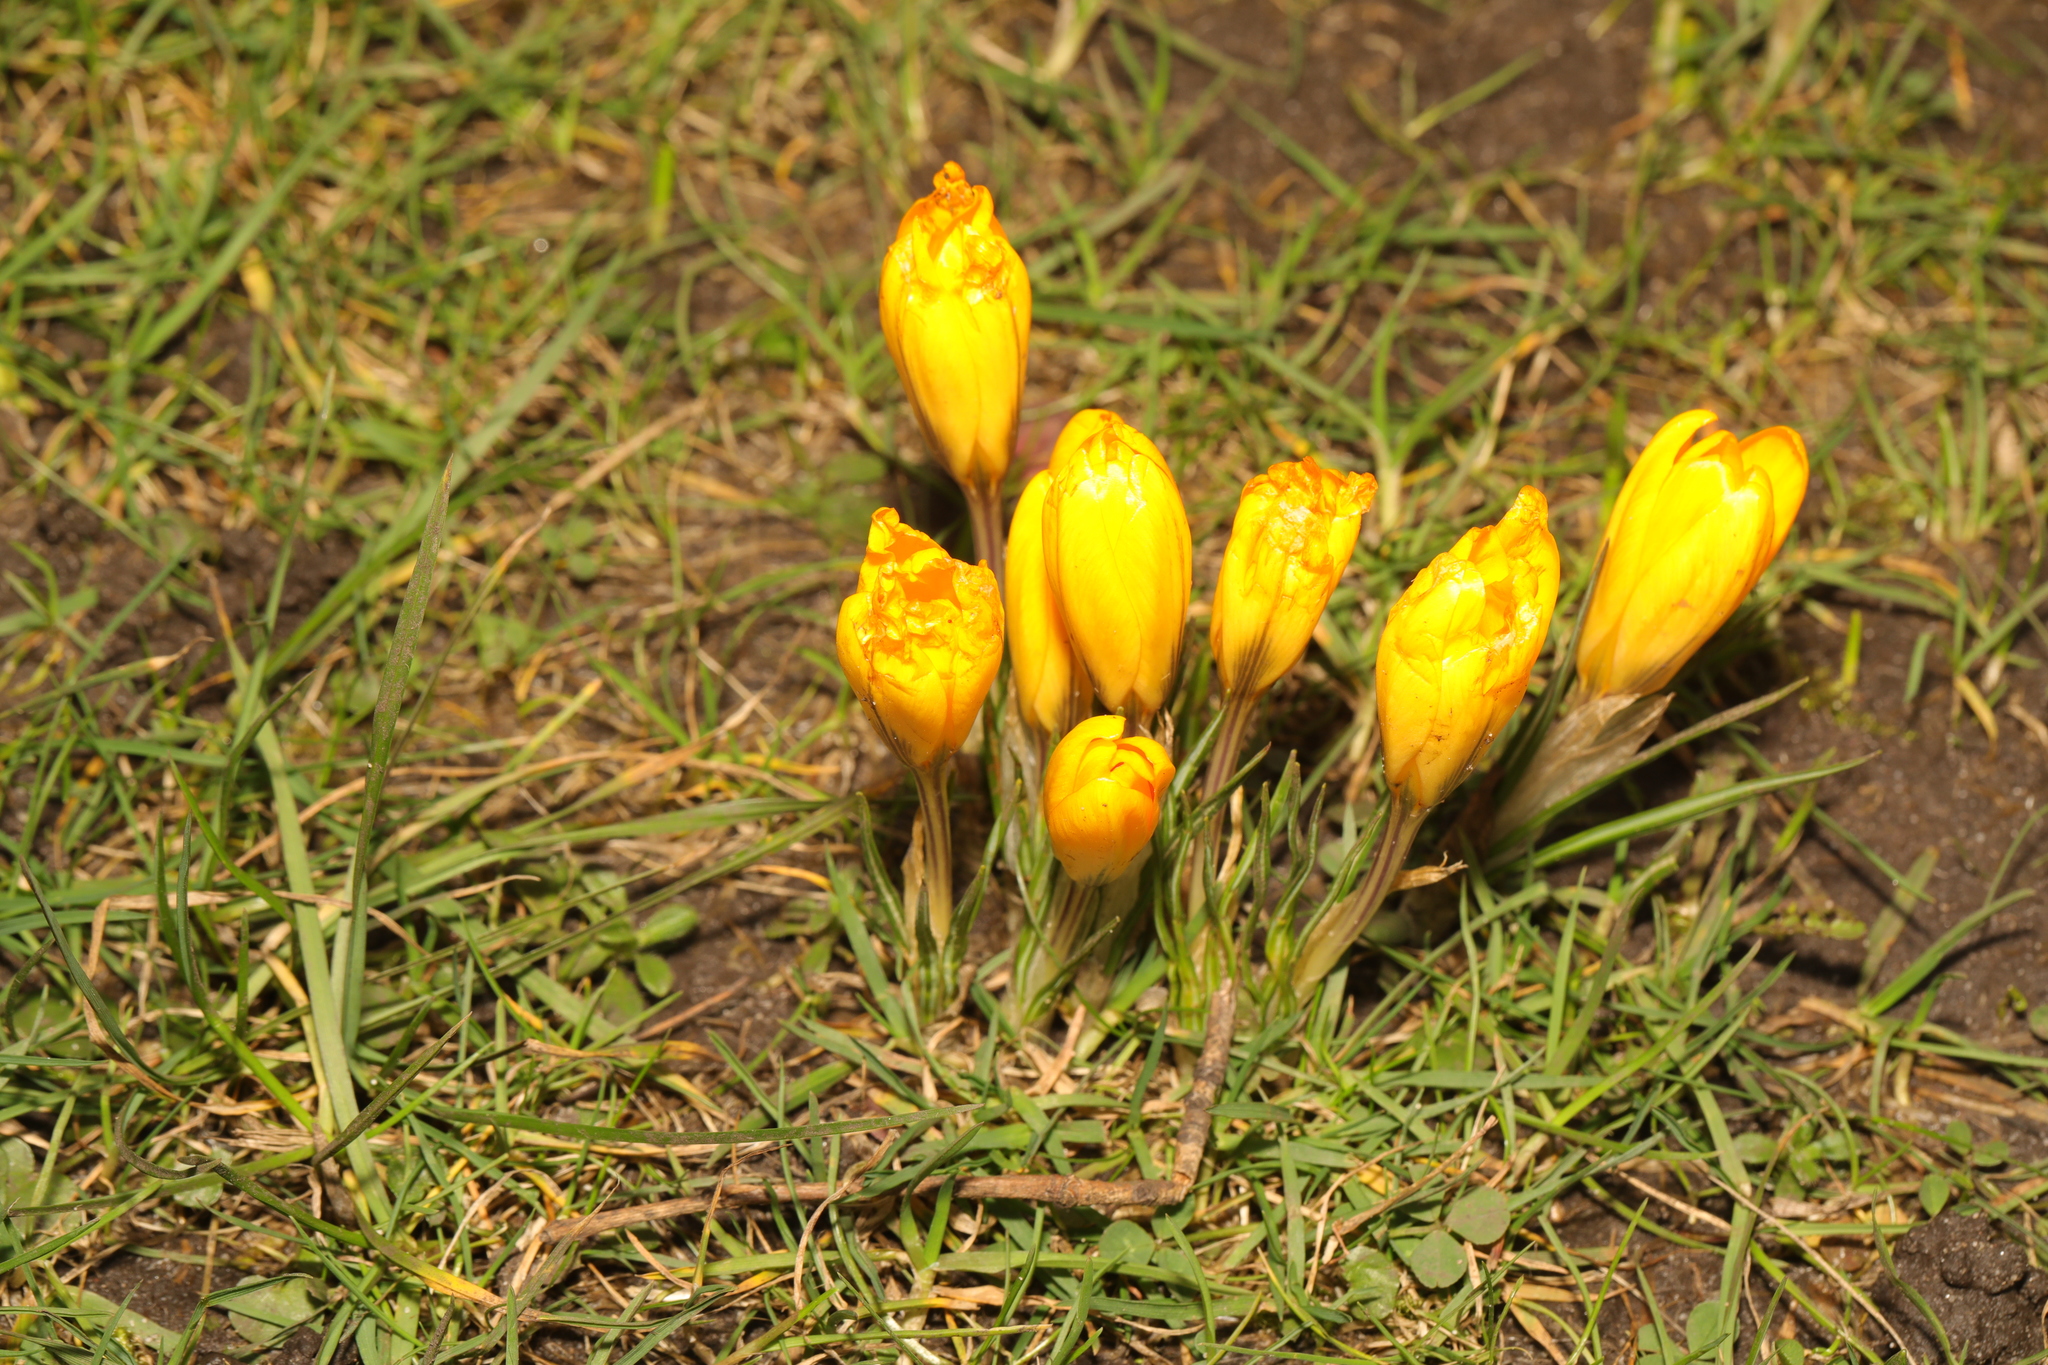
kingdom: Plantae
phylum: Tracheophyta
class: Liliopsida
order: Asparagales
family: Iridaceae
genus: Crocus
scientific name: Crocus luteus
